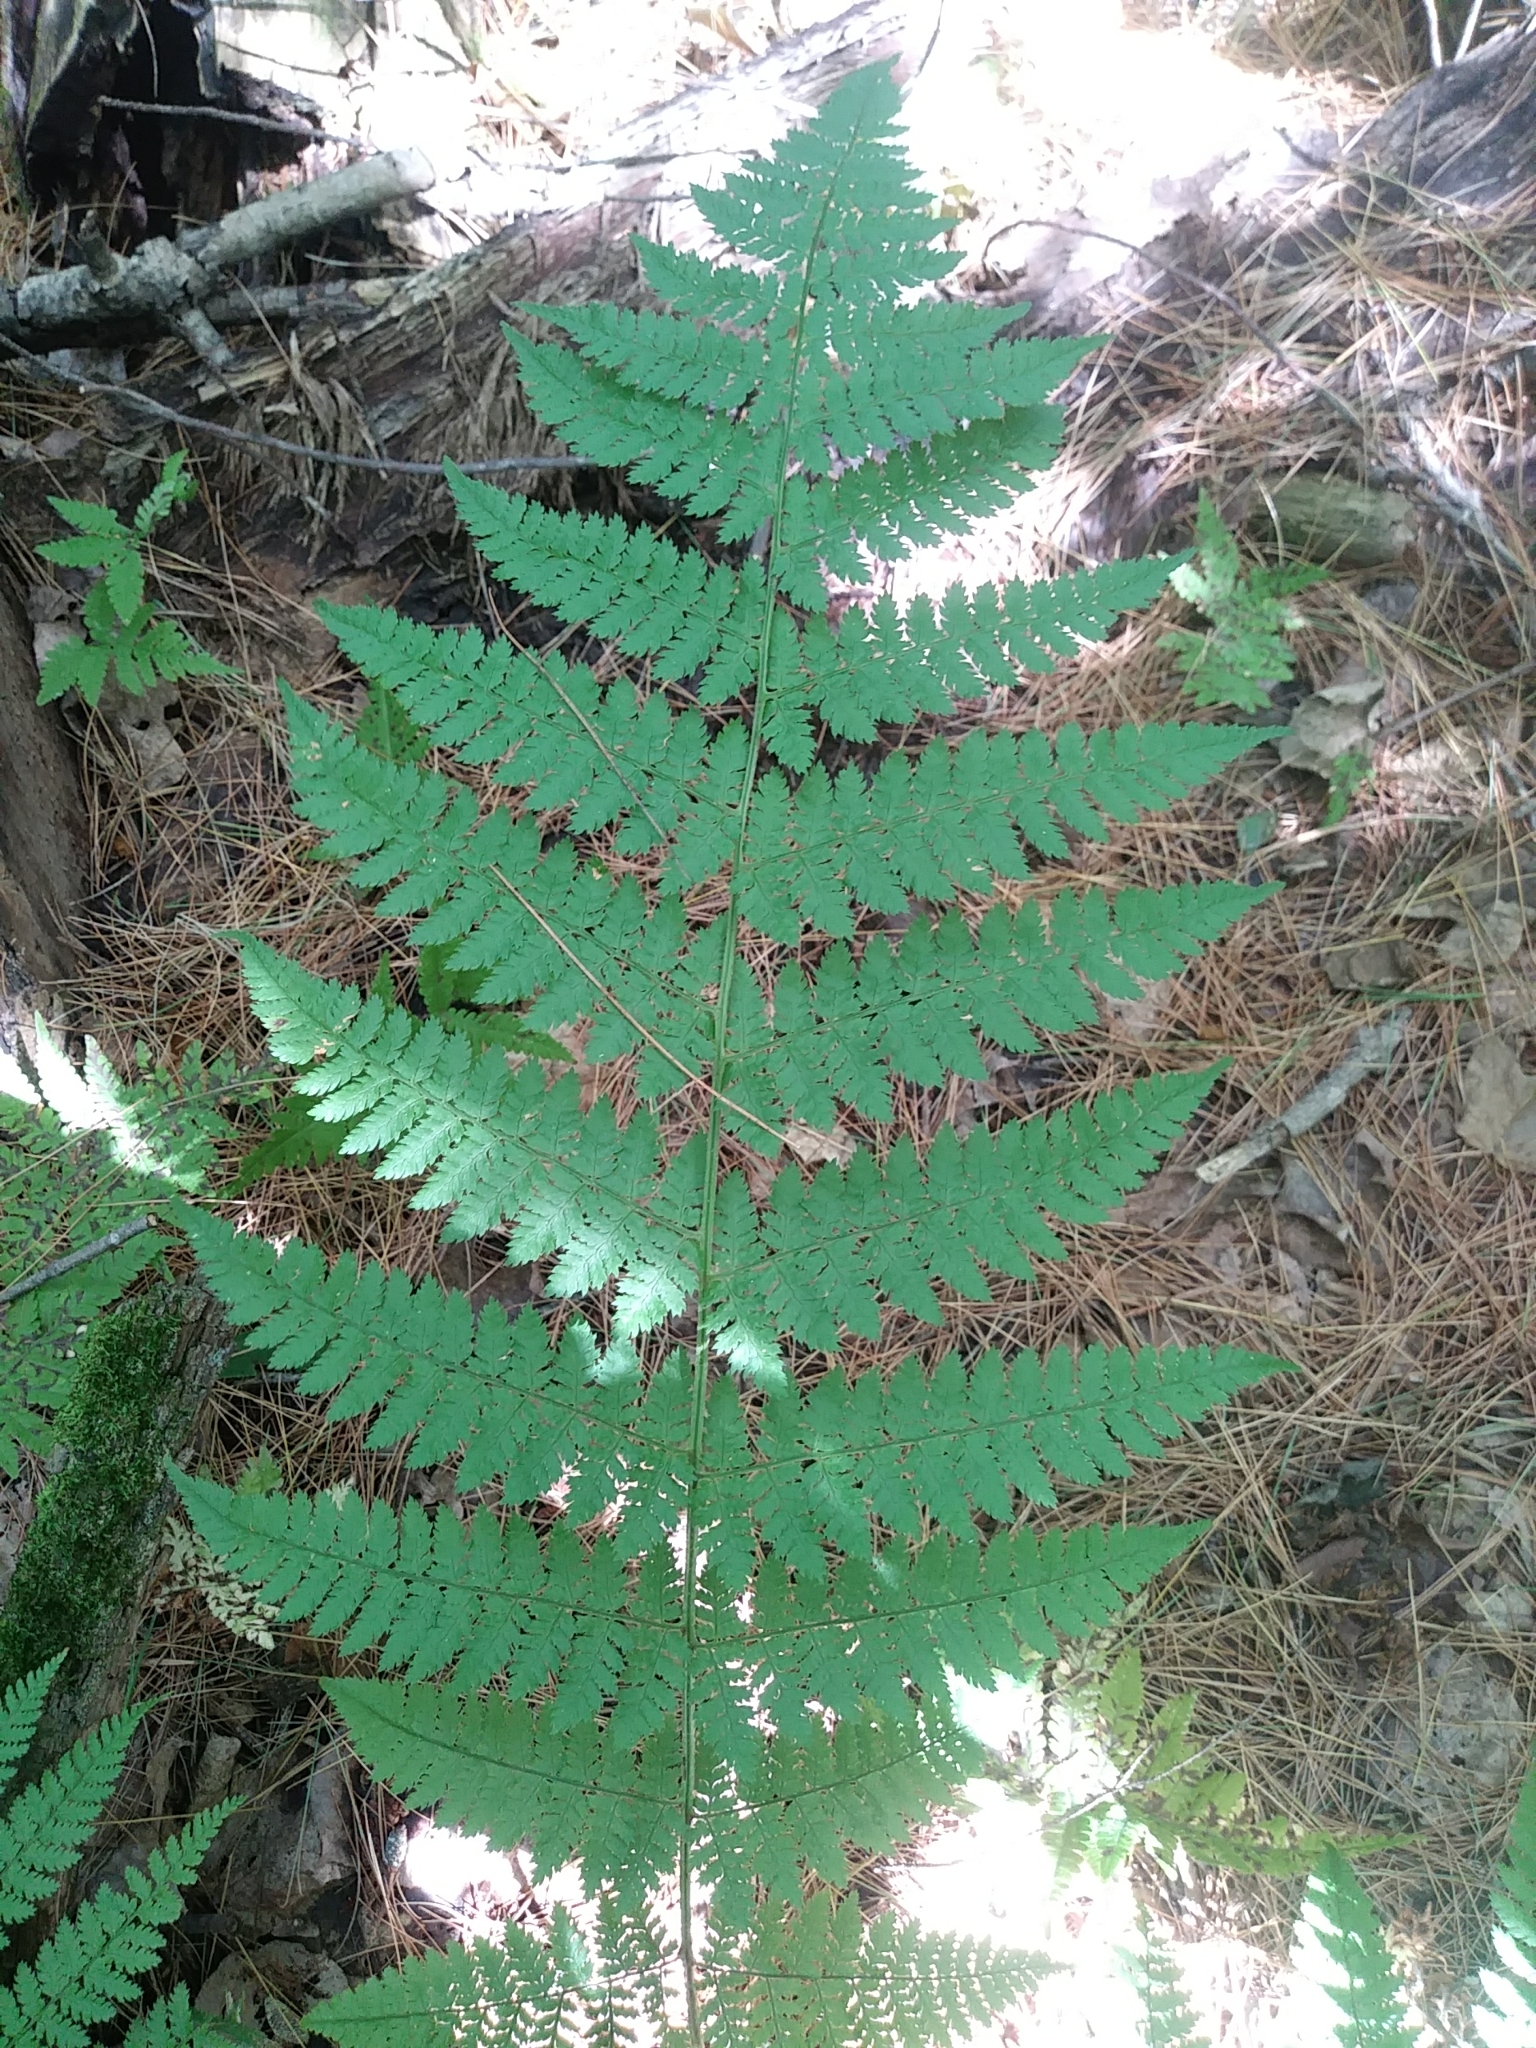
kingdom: Plantae
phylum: Tracheophyta
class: Polypodiopsida
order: Polypodiales
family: Dryopteridaceae
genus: Dryopteris
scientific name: Dryopteris intermedia
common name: Evergreen wood fern
